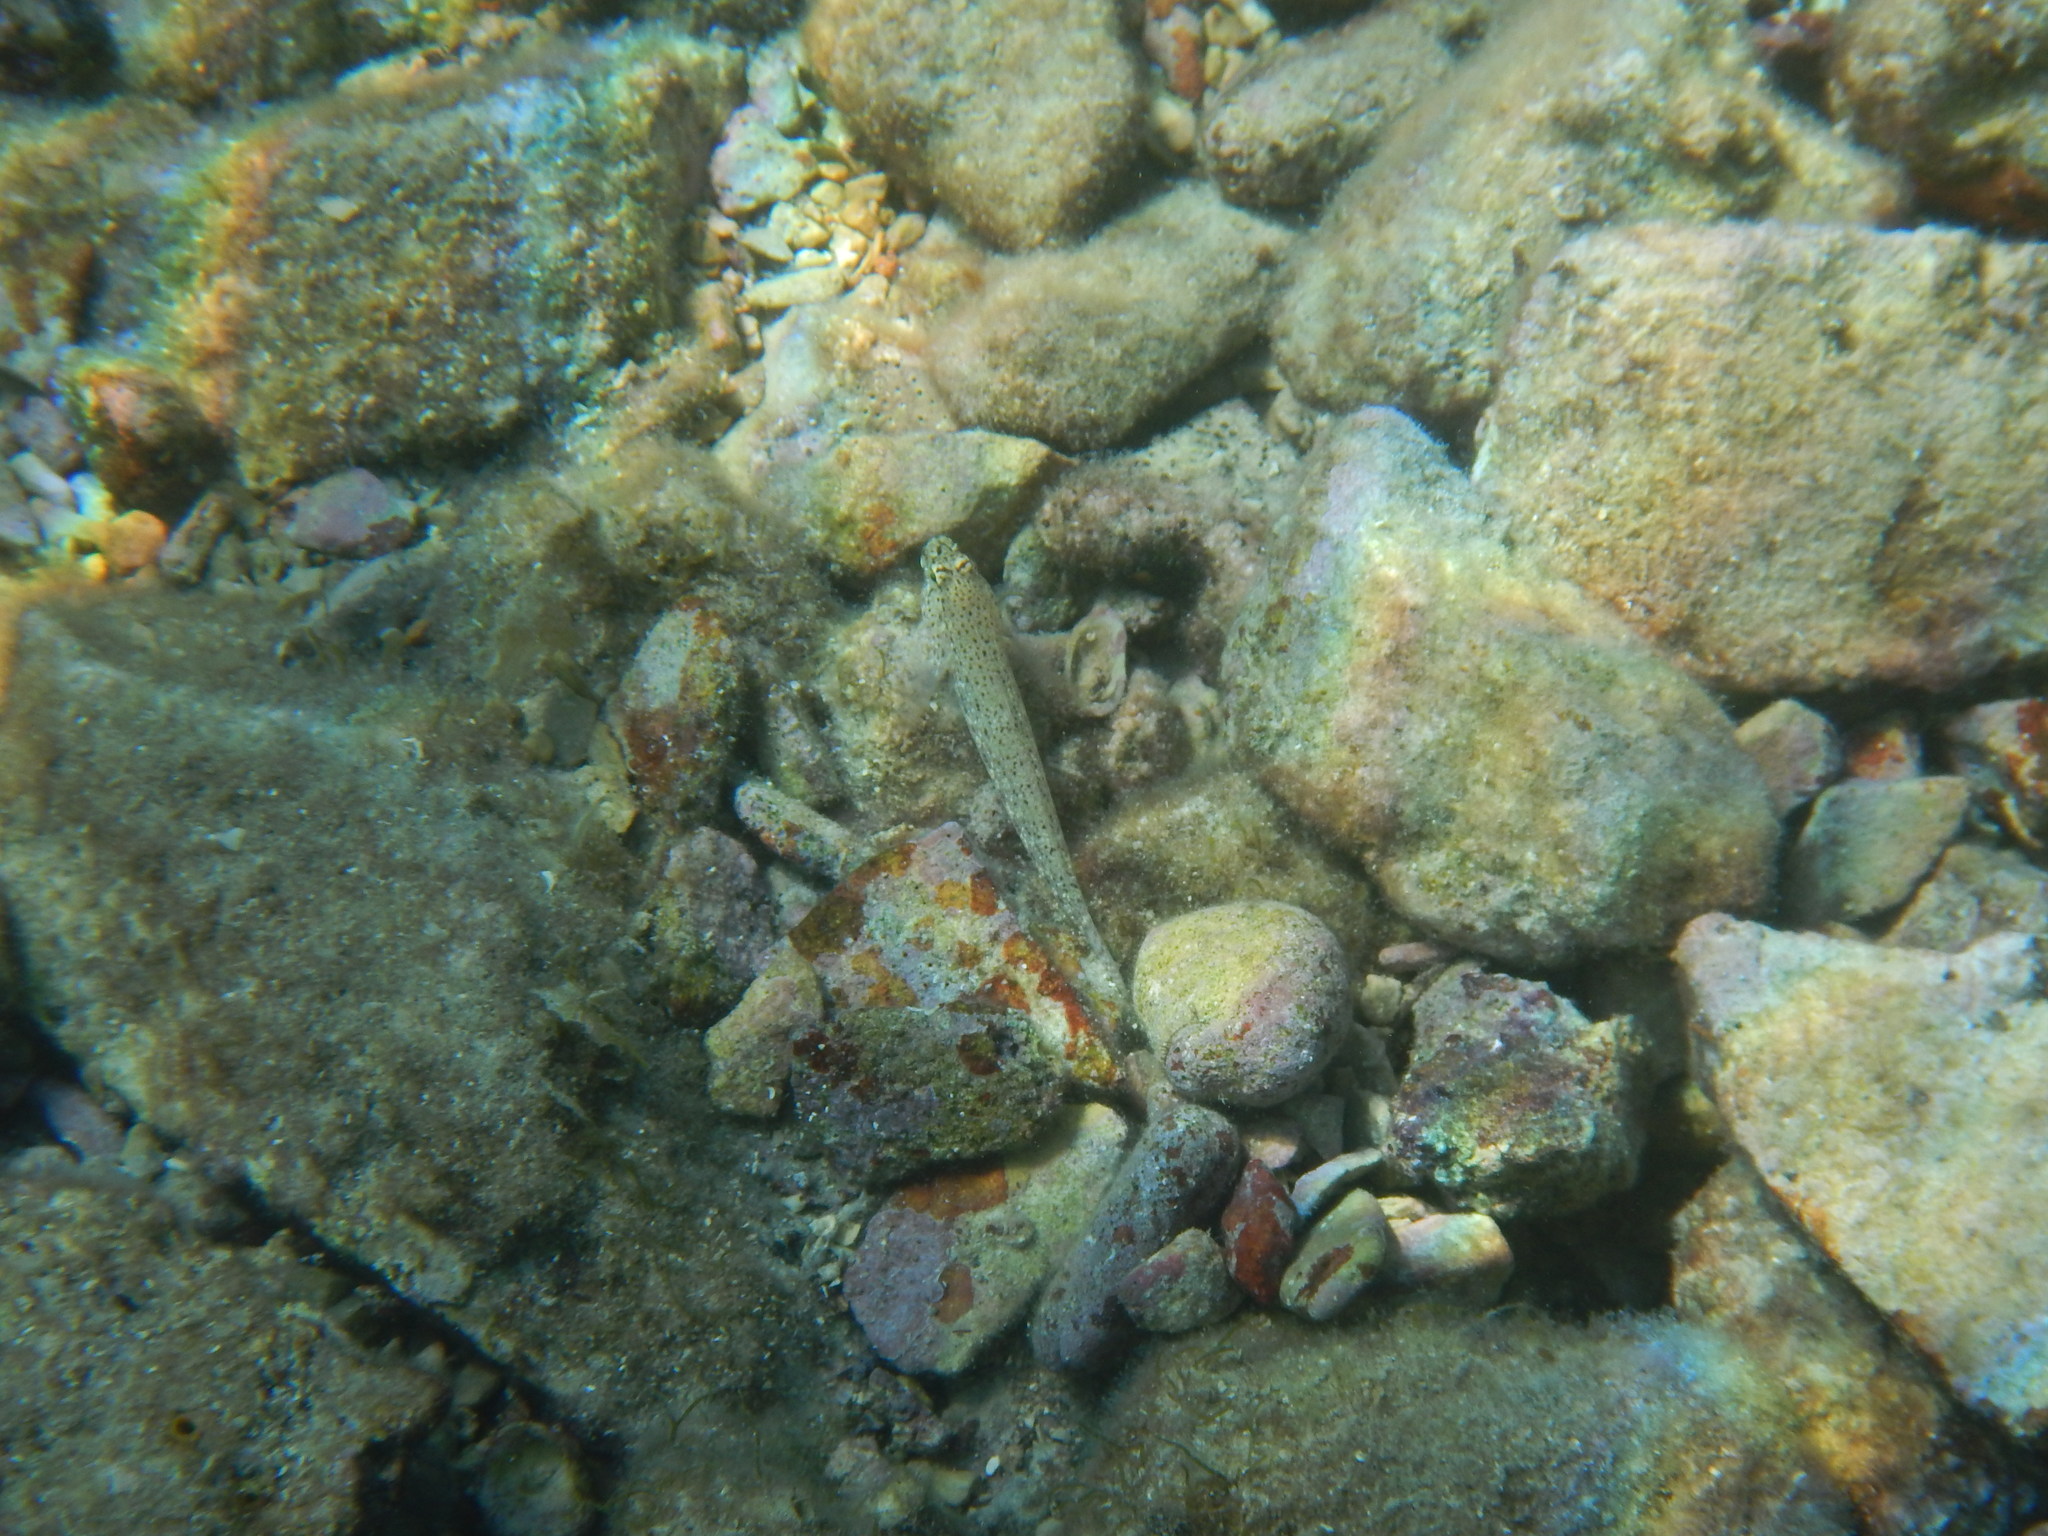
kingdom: Animalia
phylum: Chordata
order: Perciformes
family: Gobiidae
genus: Gobius
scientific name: Gobius incognitus
